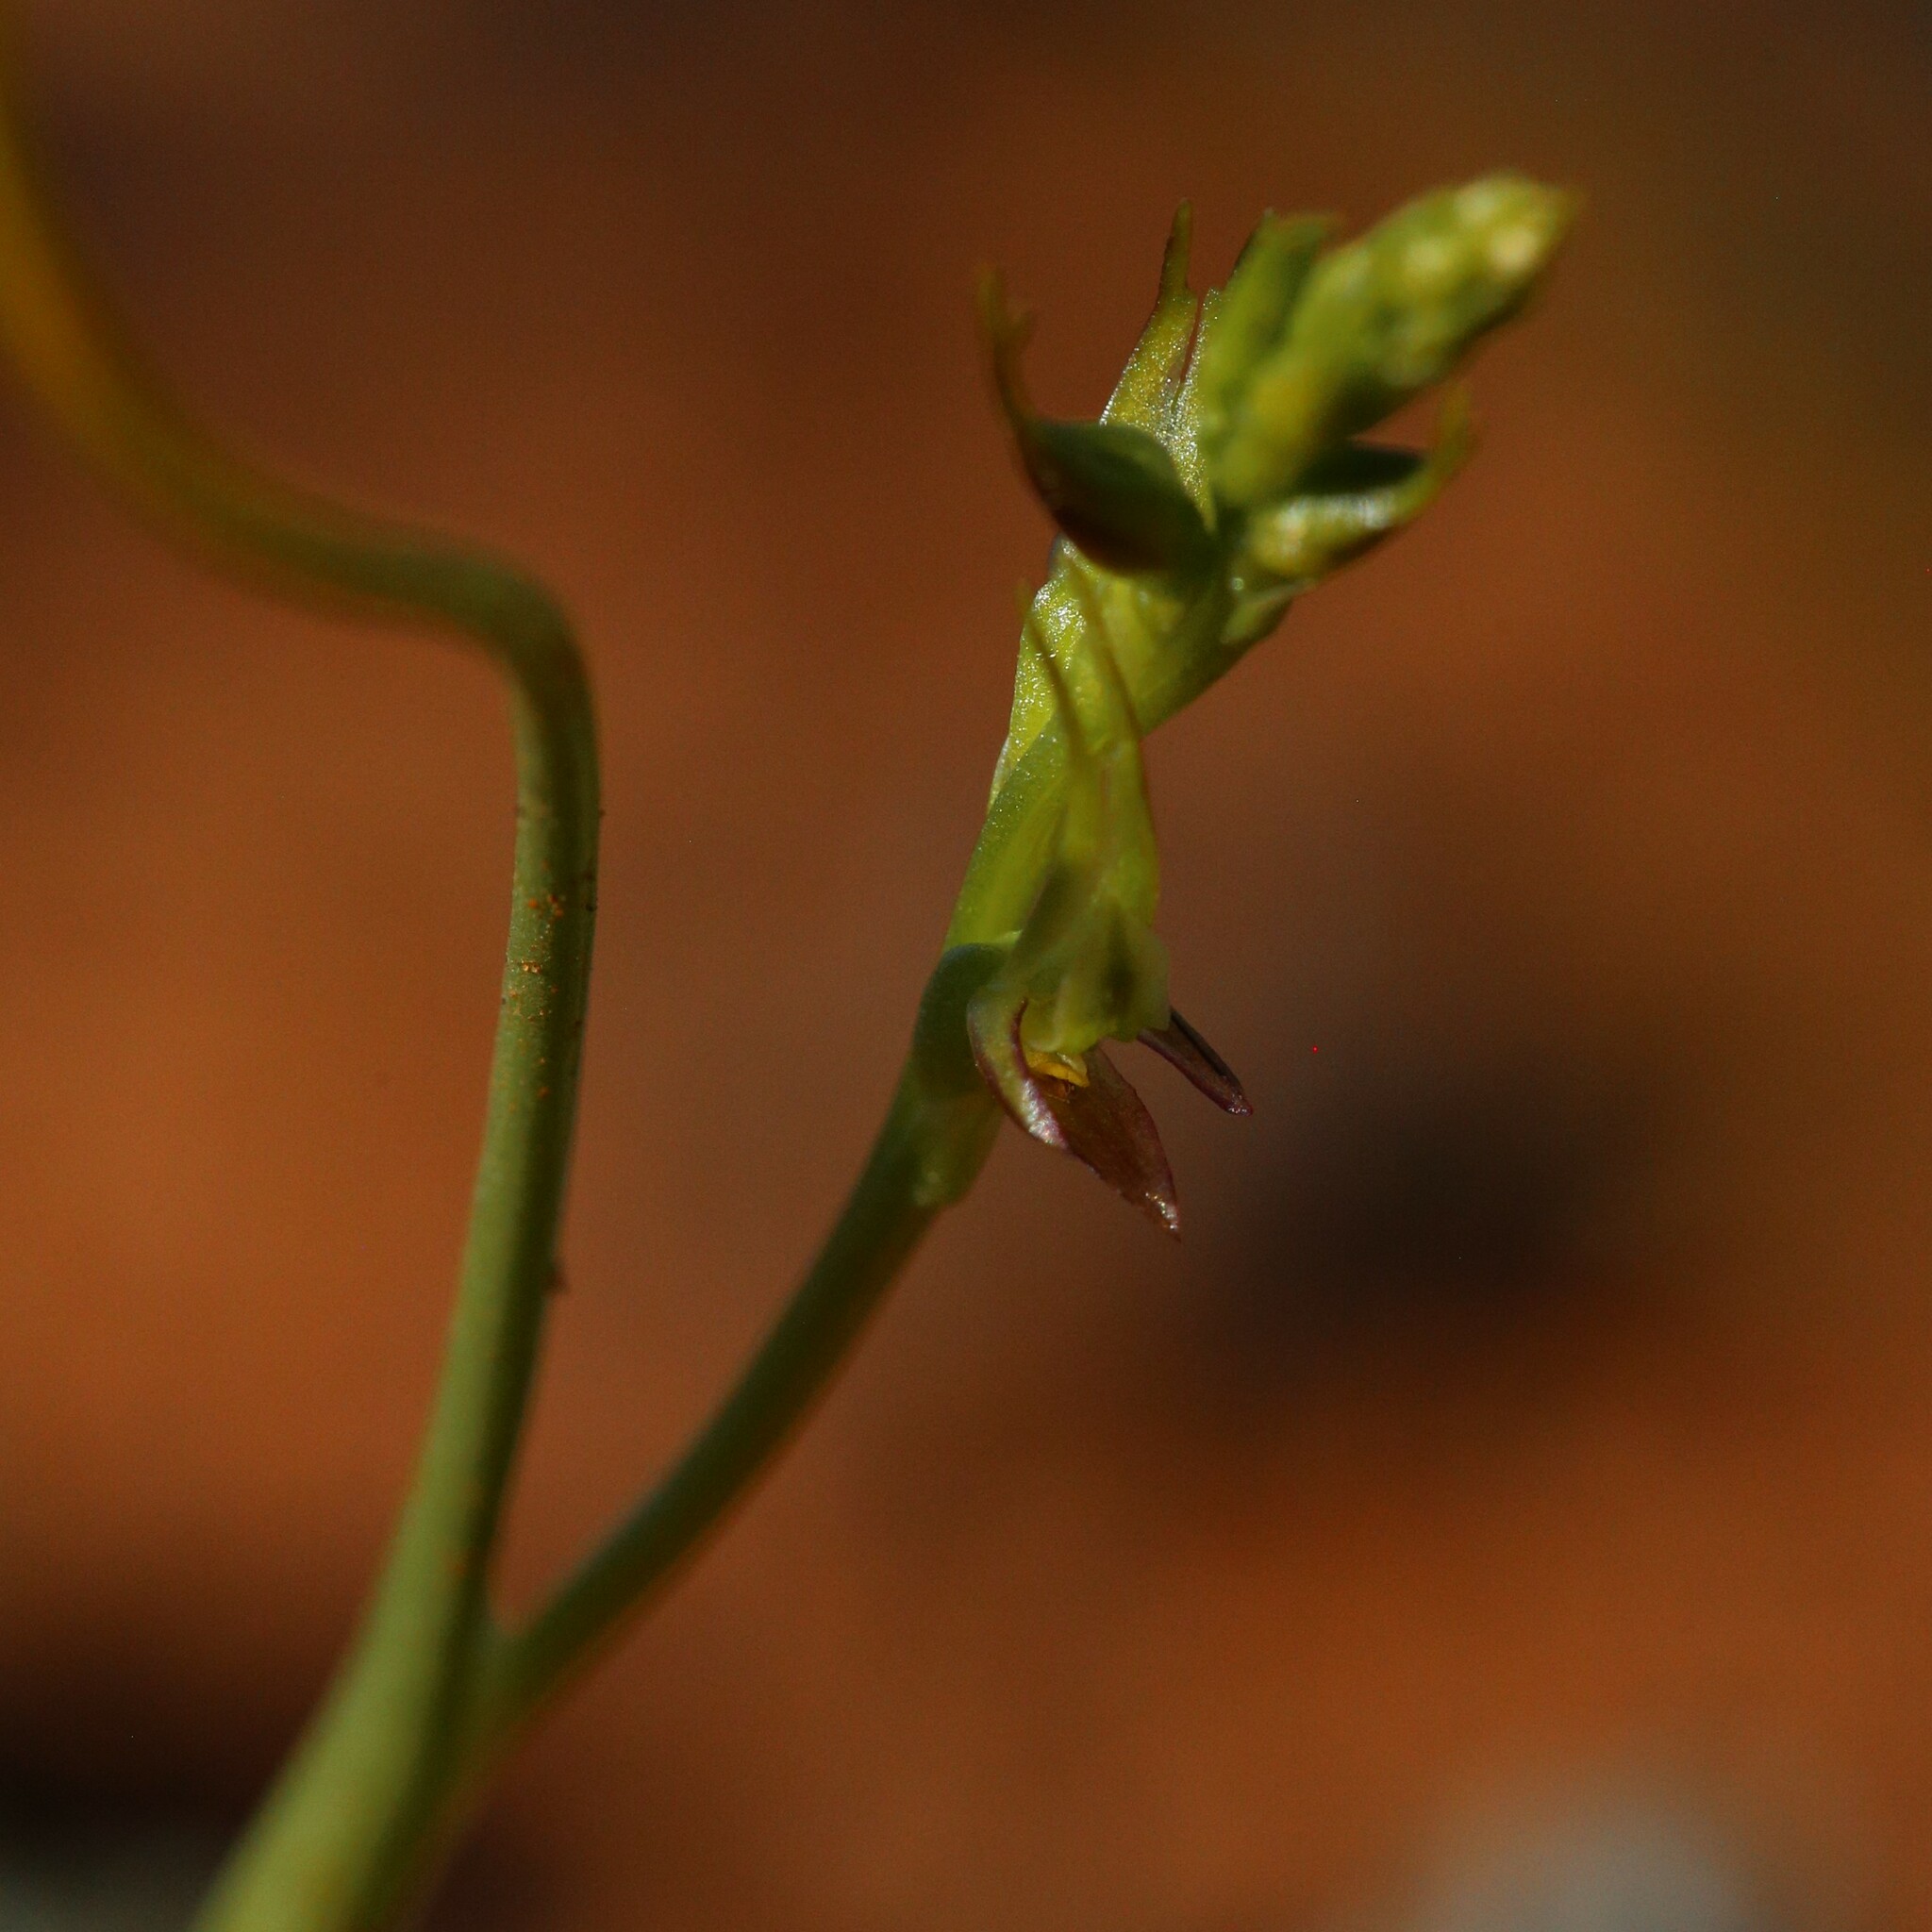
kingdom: Plantae
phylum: Tracheophyta
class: Liliopsida
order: Asparagales
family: Orchidaceae
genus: Prasophyllum
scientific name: Prasophyllum gracile
